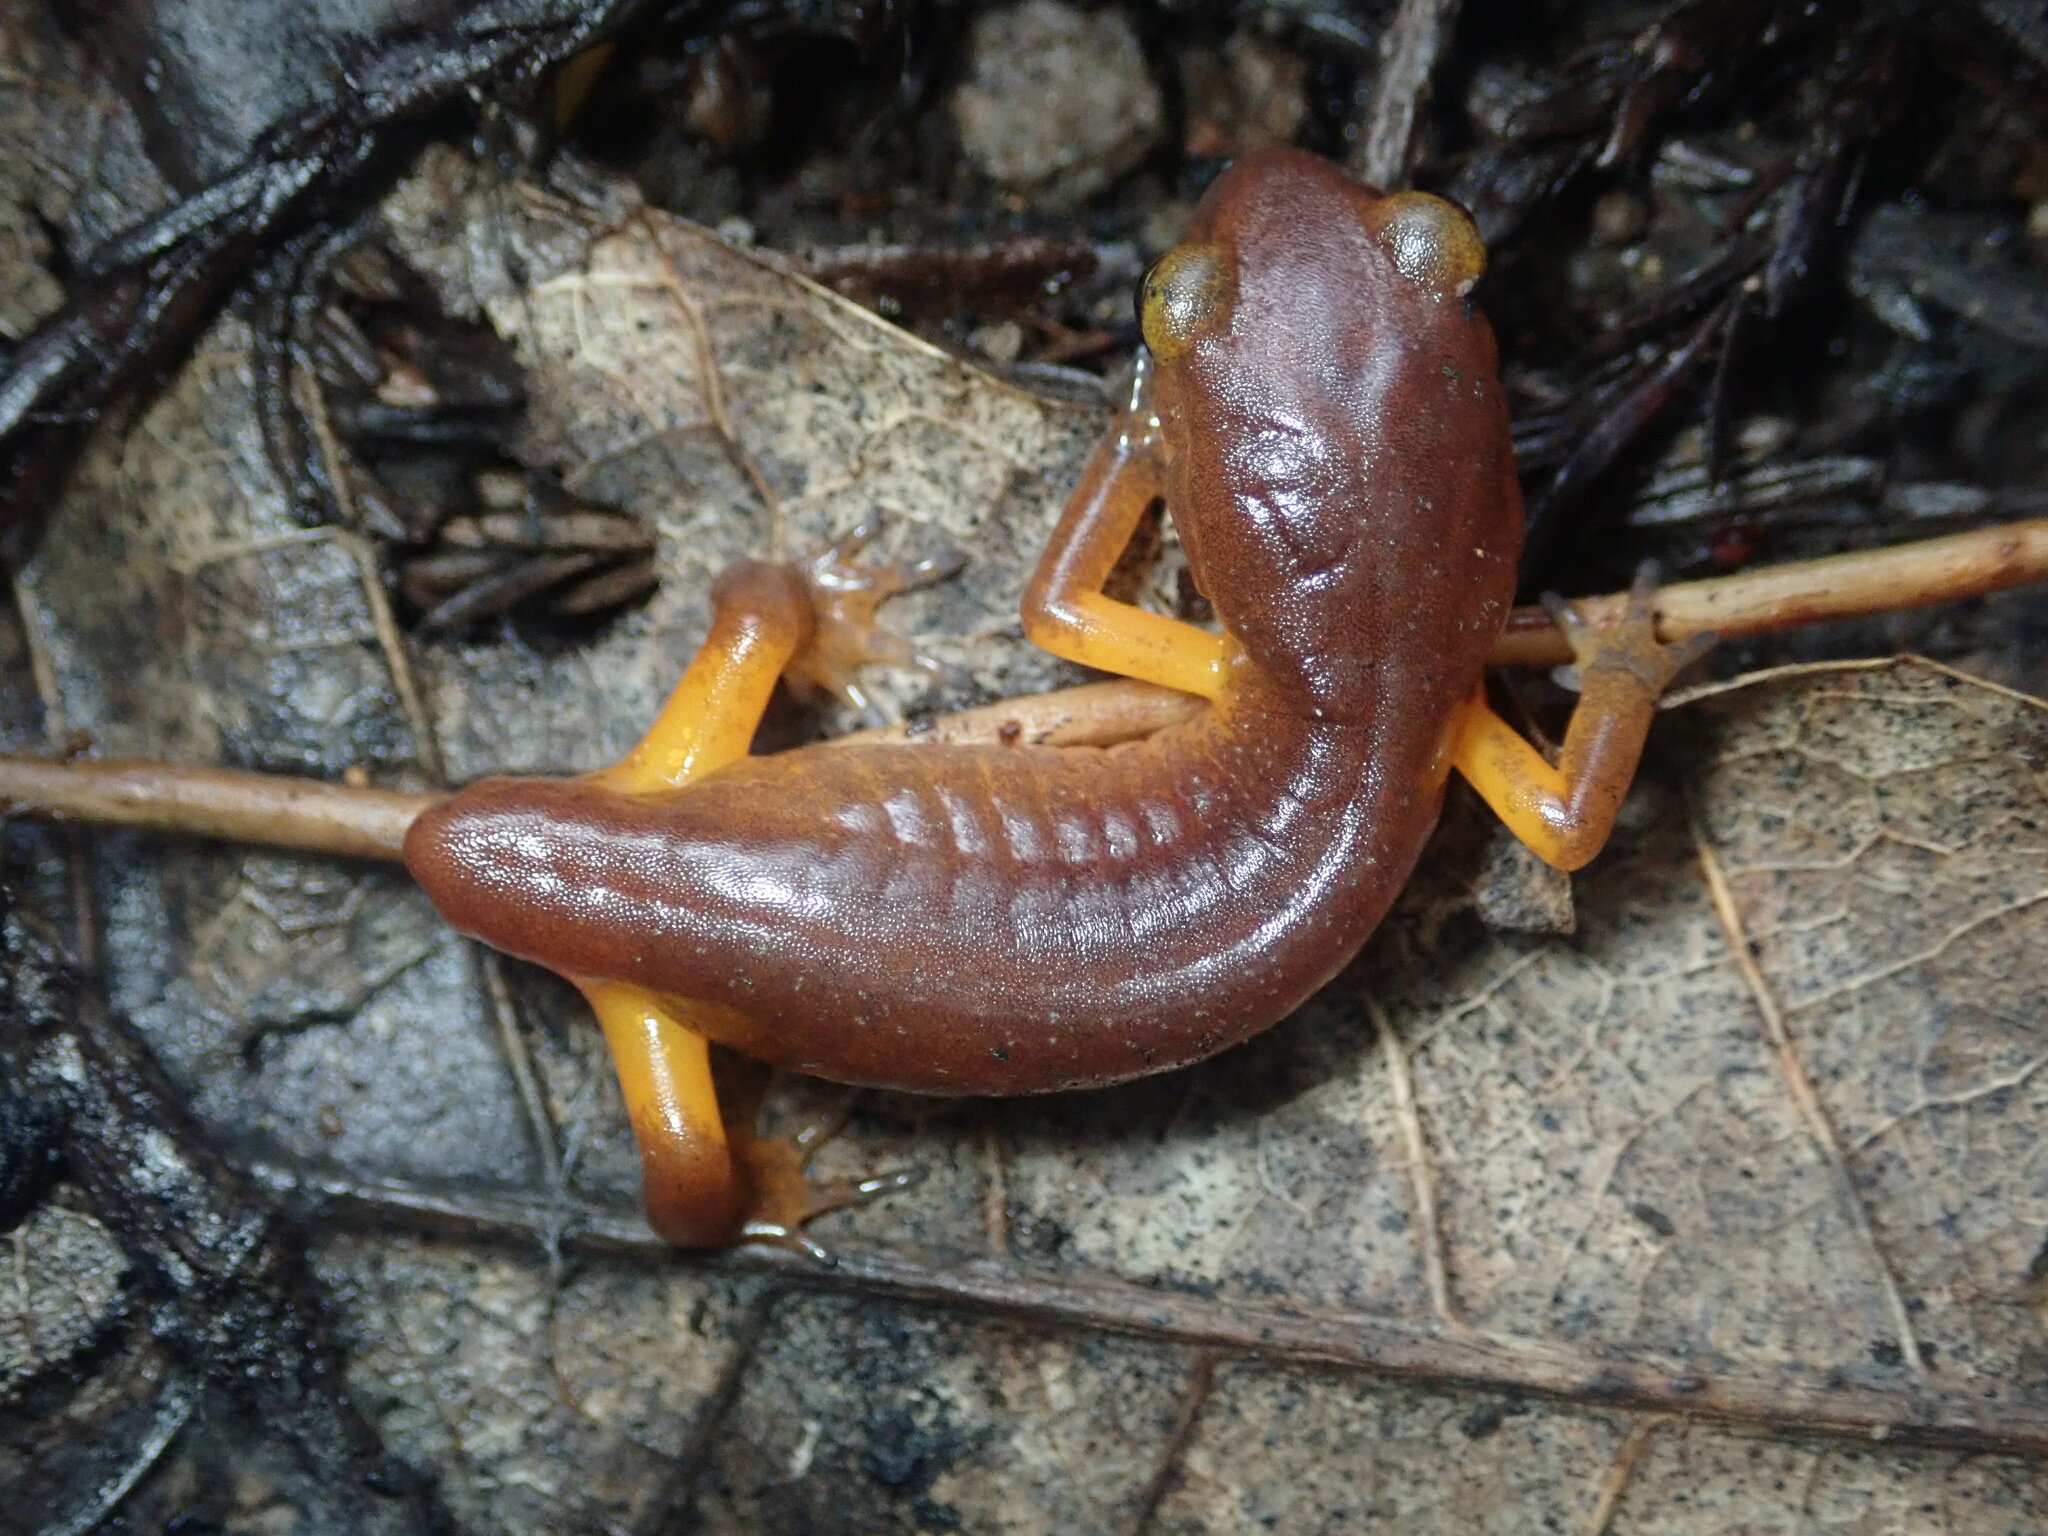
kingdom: Animalia
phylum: Chordata
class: Amphibia
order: Caudata
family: Plethodontidae
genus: Ensatina
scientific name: Ensatina eschscholtzii
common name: Ensatina
